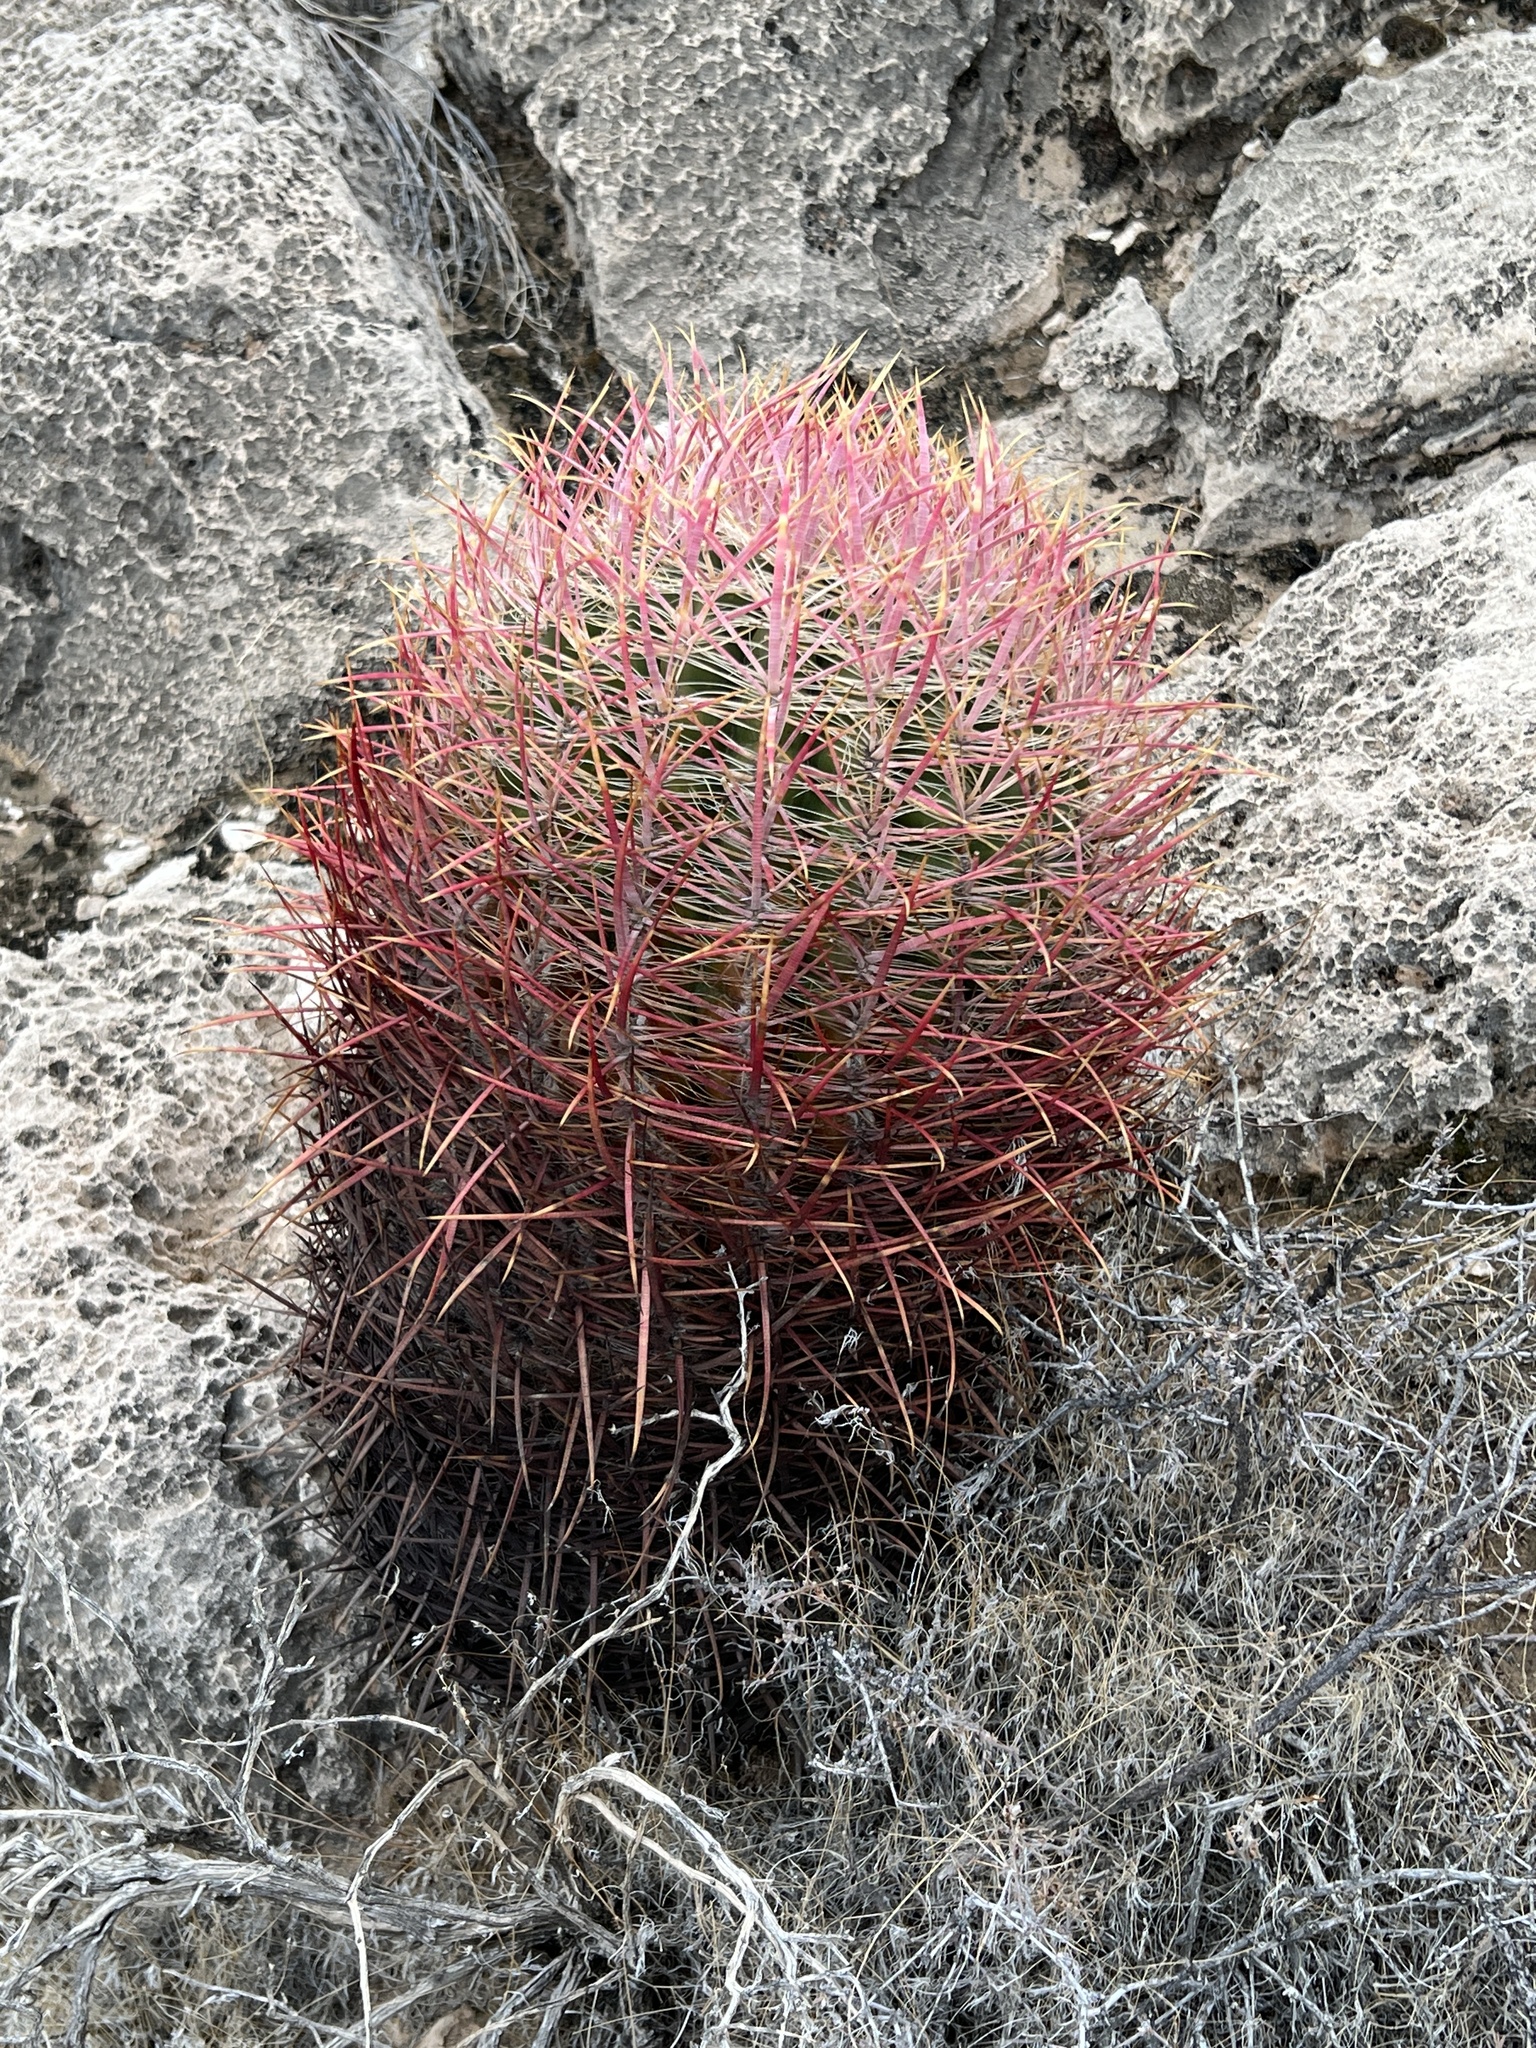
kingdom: Plantae
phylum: Tracheophyta
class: Magnoliopsida
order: Caryophyllales
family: Cactaceae
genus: Ferocactus
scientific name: Ferocactus cylindraceus
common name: California barrel cactus
